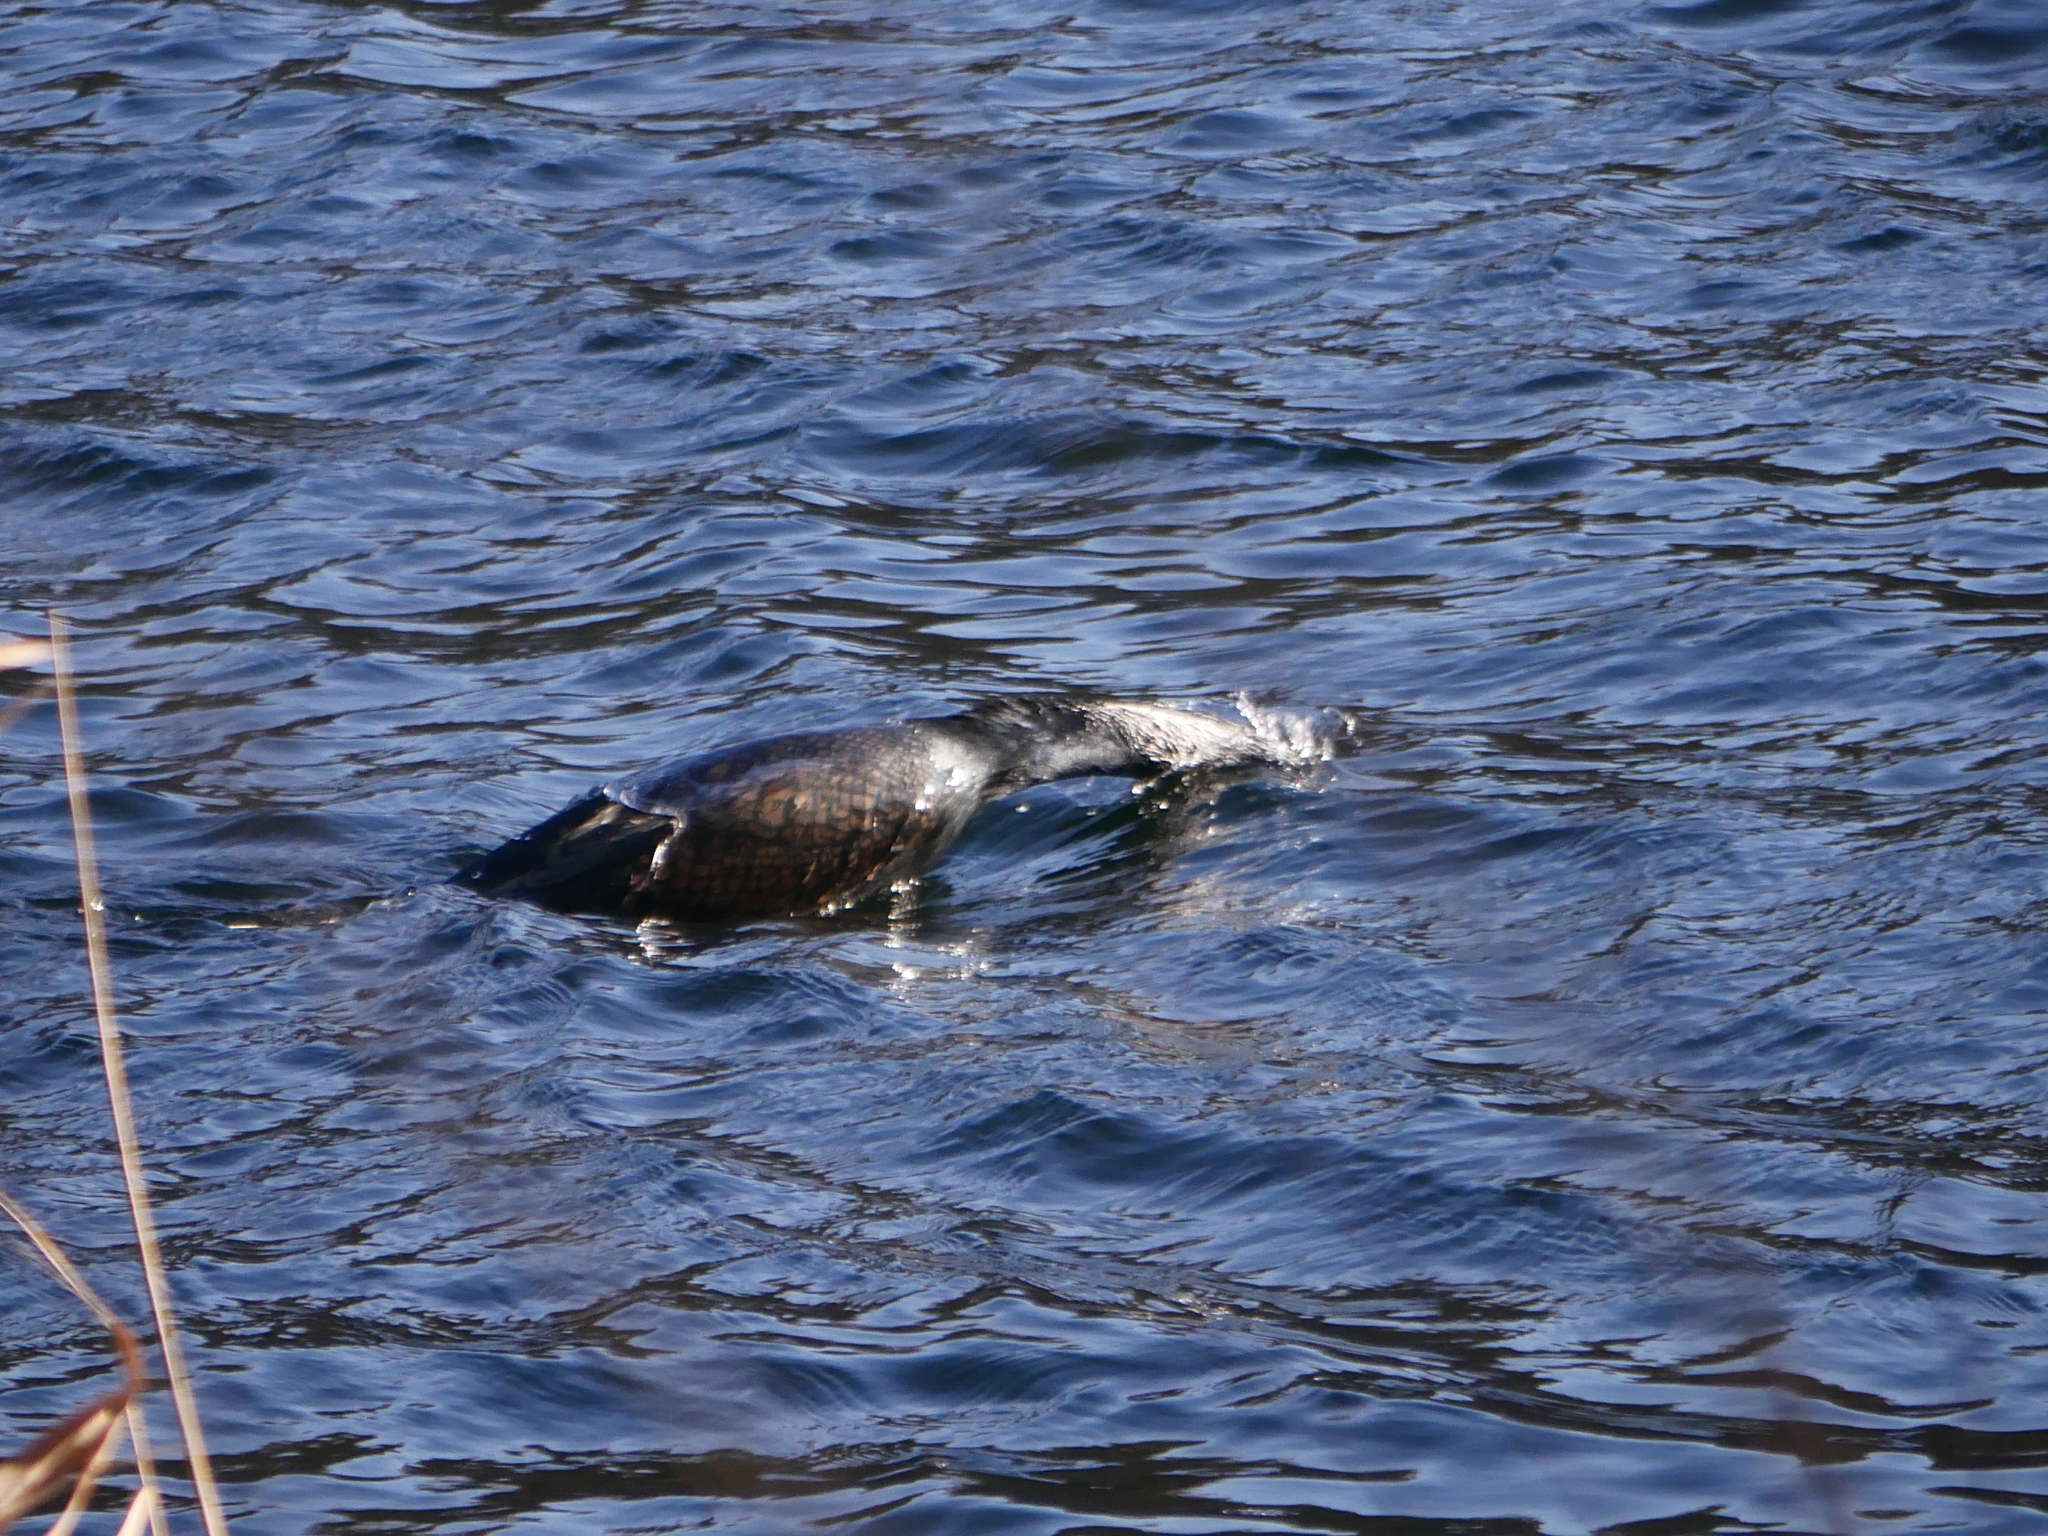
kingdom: Animalia
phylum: Chordata
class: Aves
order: Suliformes
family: Phalacrocoracidae
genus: Phalacrocorax
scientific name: Phalacrocorax carbo
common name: Great cormorant
